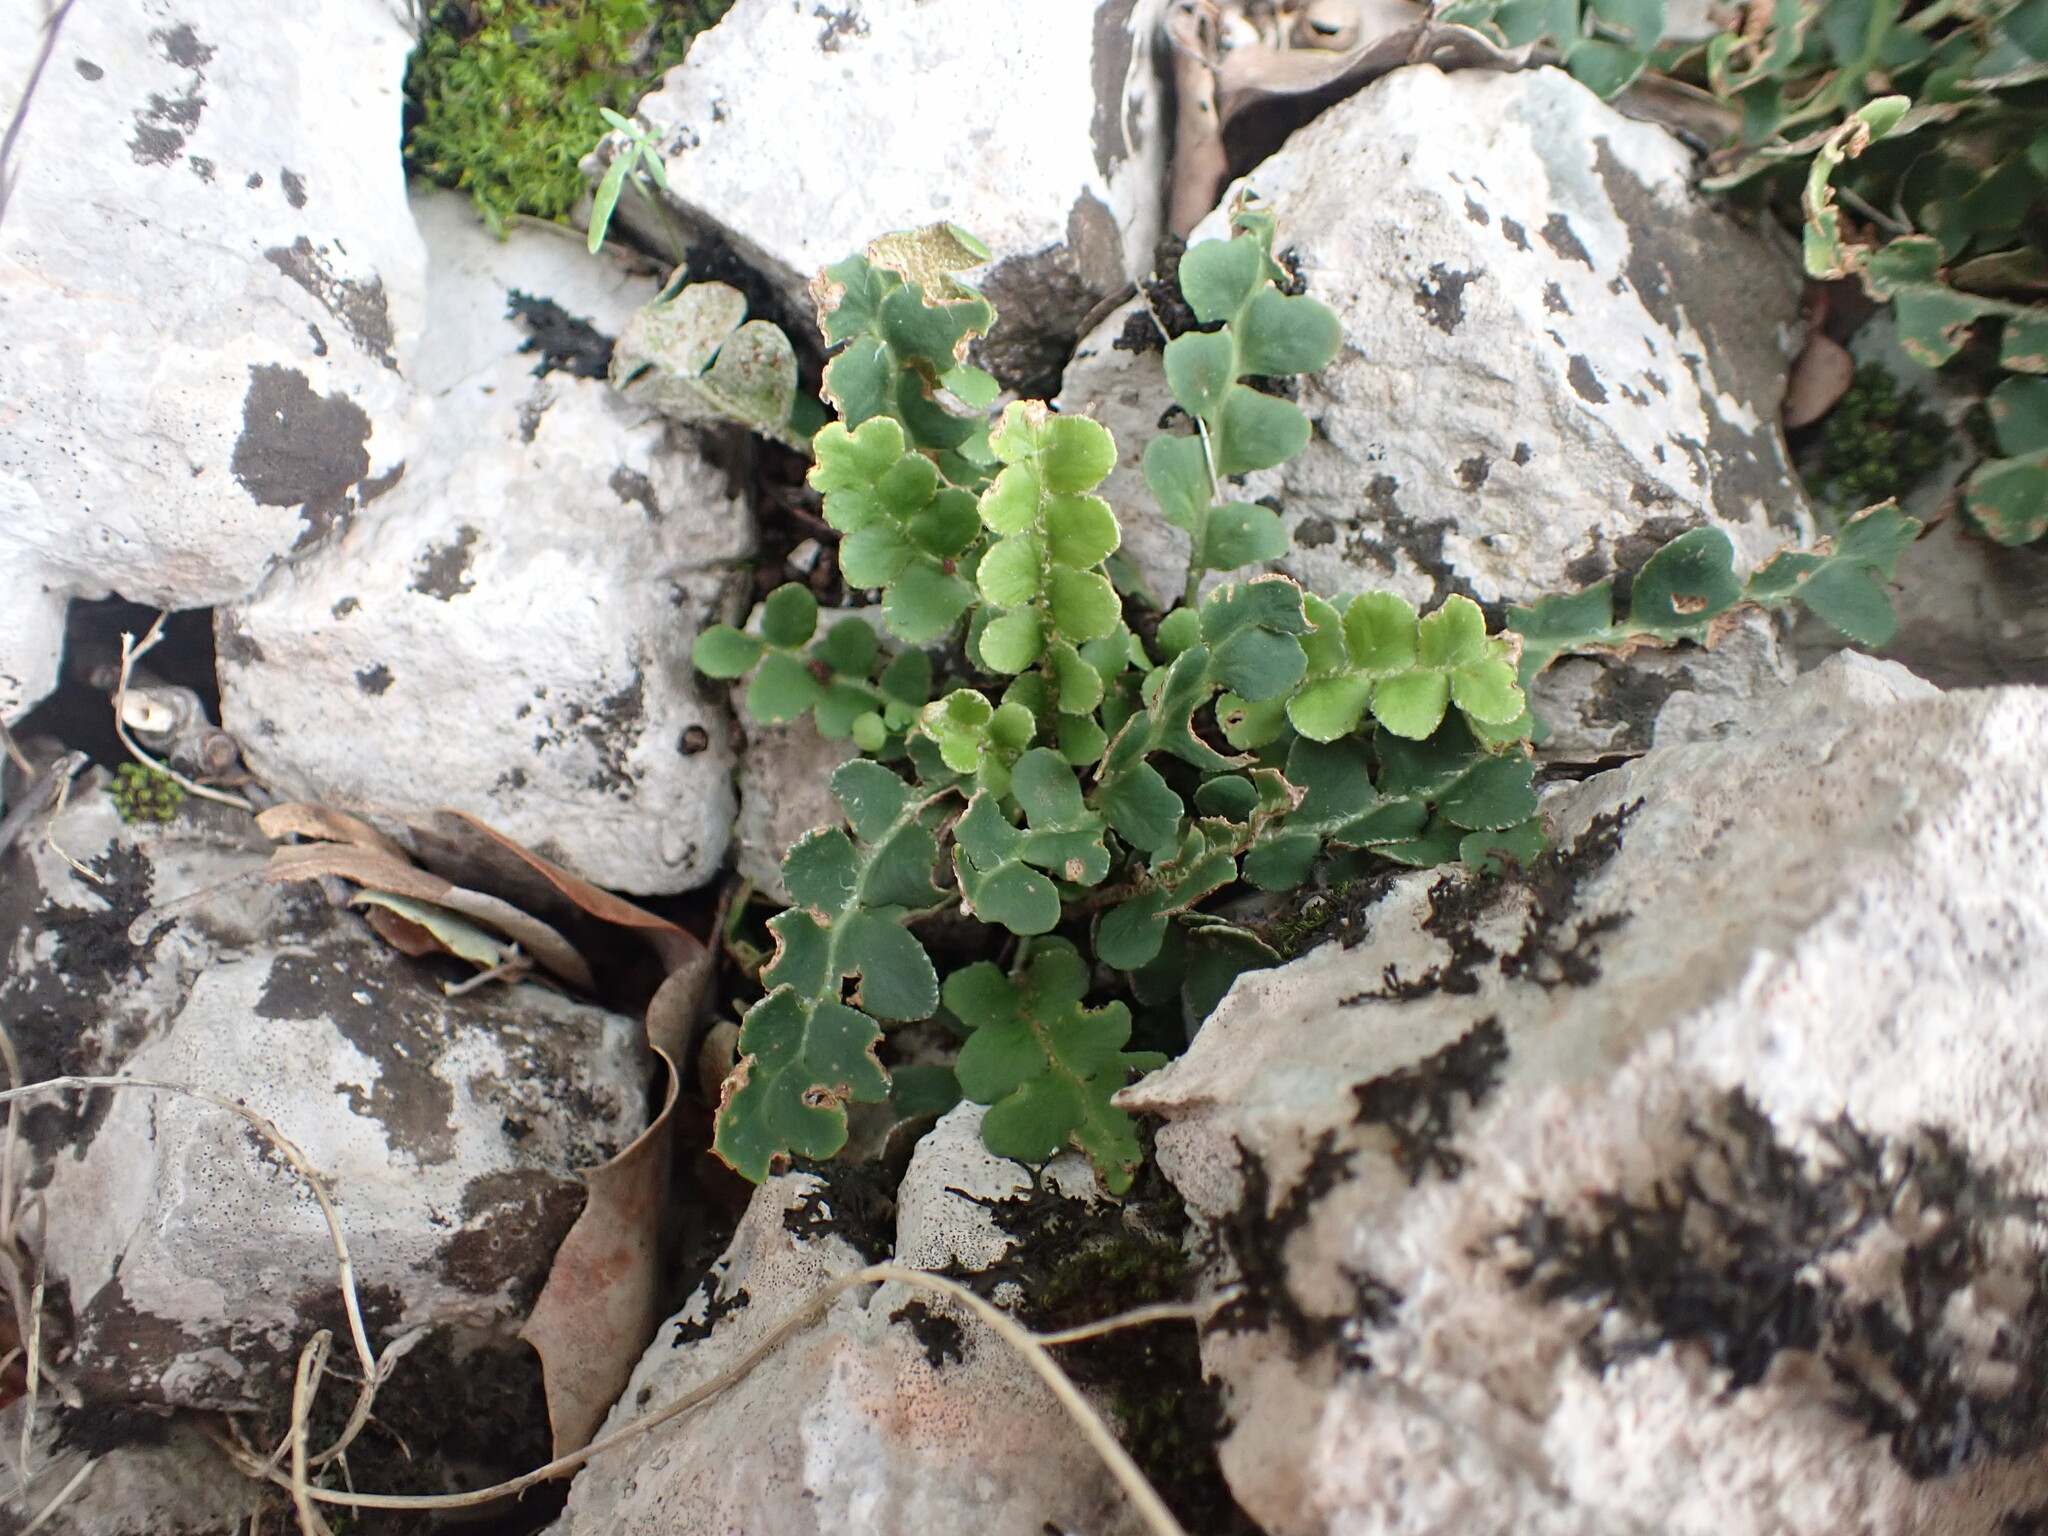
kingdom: Plantae
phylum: Tracheophyta
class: Polypodiopsida
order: Polypodiales
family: Aspleniaceae
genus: Asplenium
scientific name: Asplenium ceterach
